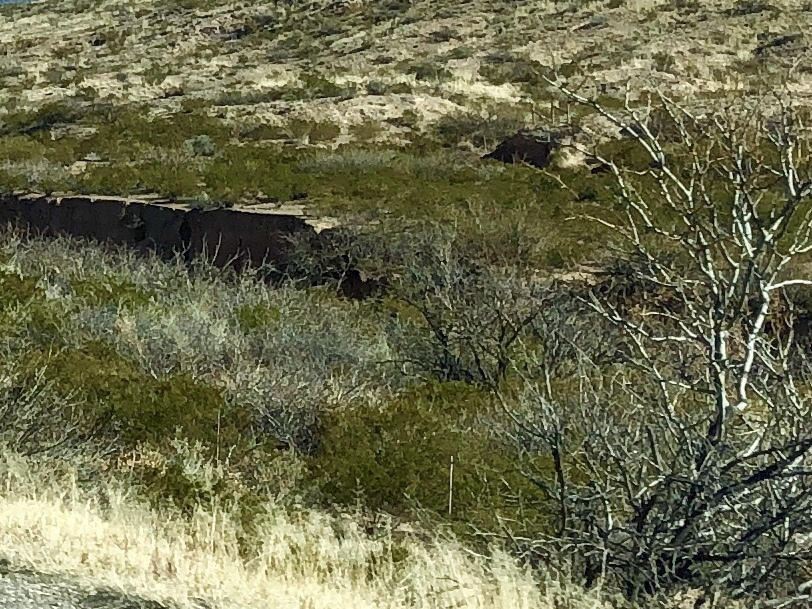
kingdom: Plantae
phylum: Tracheophyta
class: Magnoliopsida
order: Zygophyllales
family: Zygophyllaceae
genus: Larrea
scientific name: Larrea tridentata
